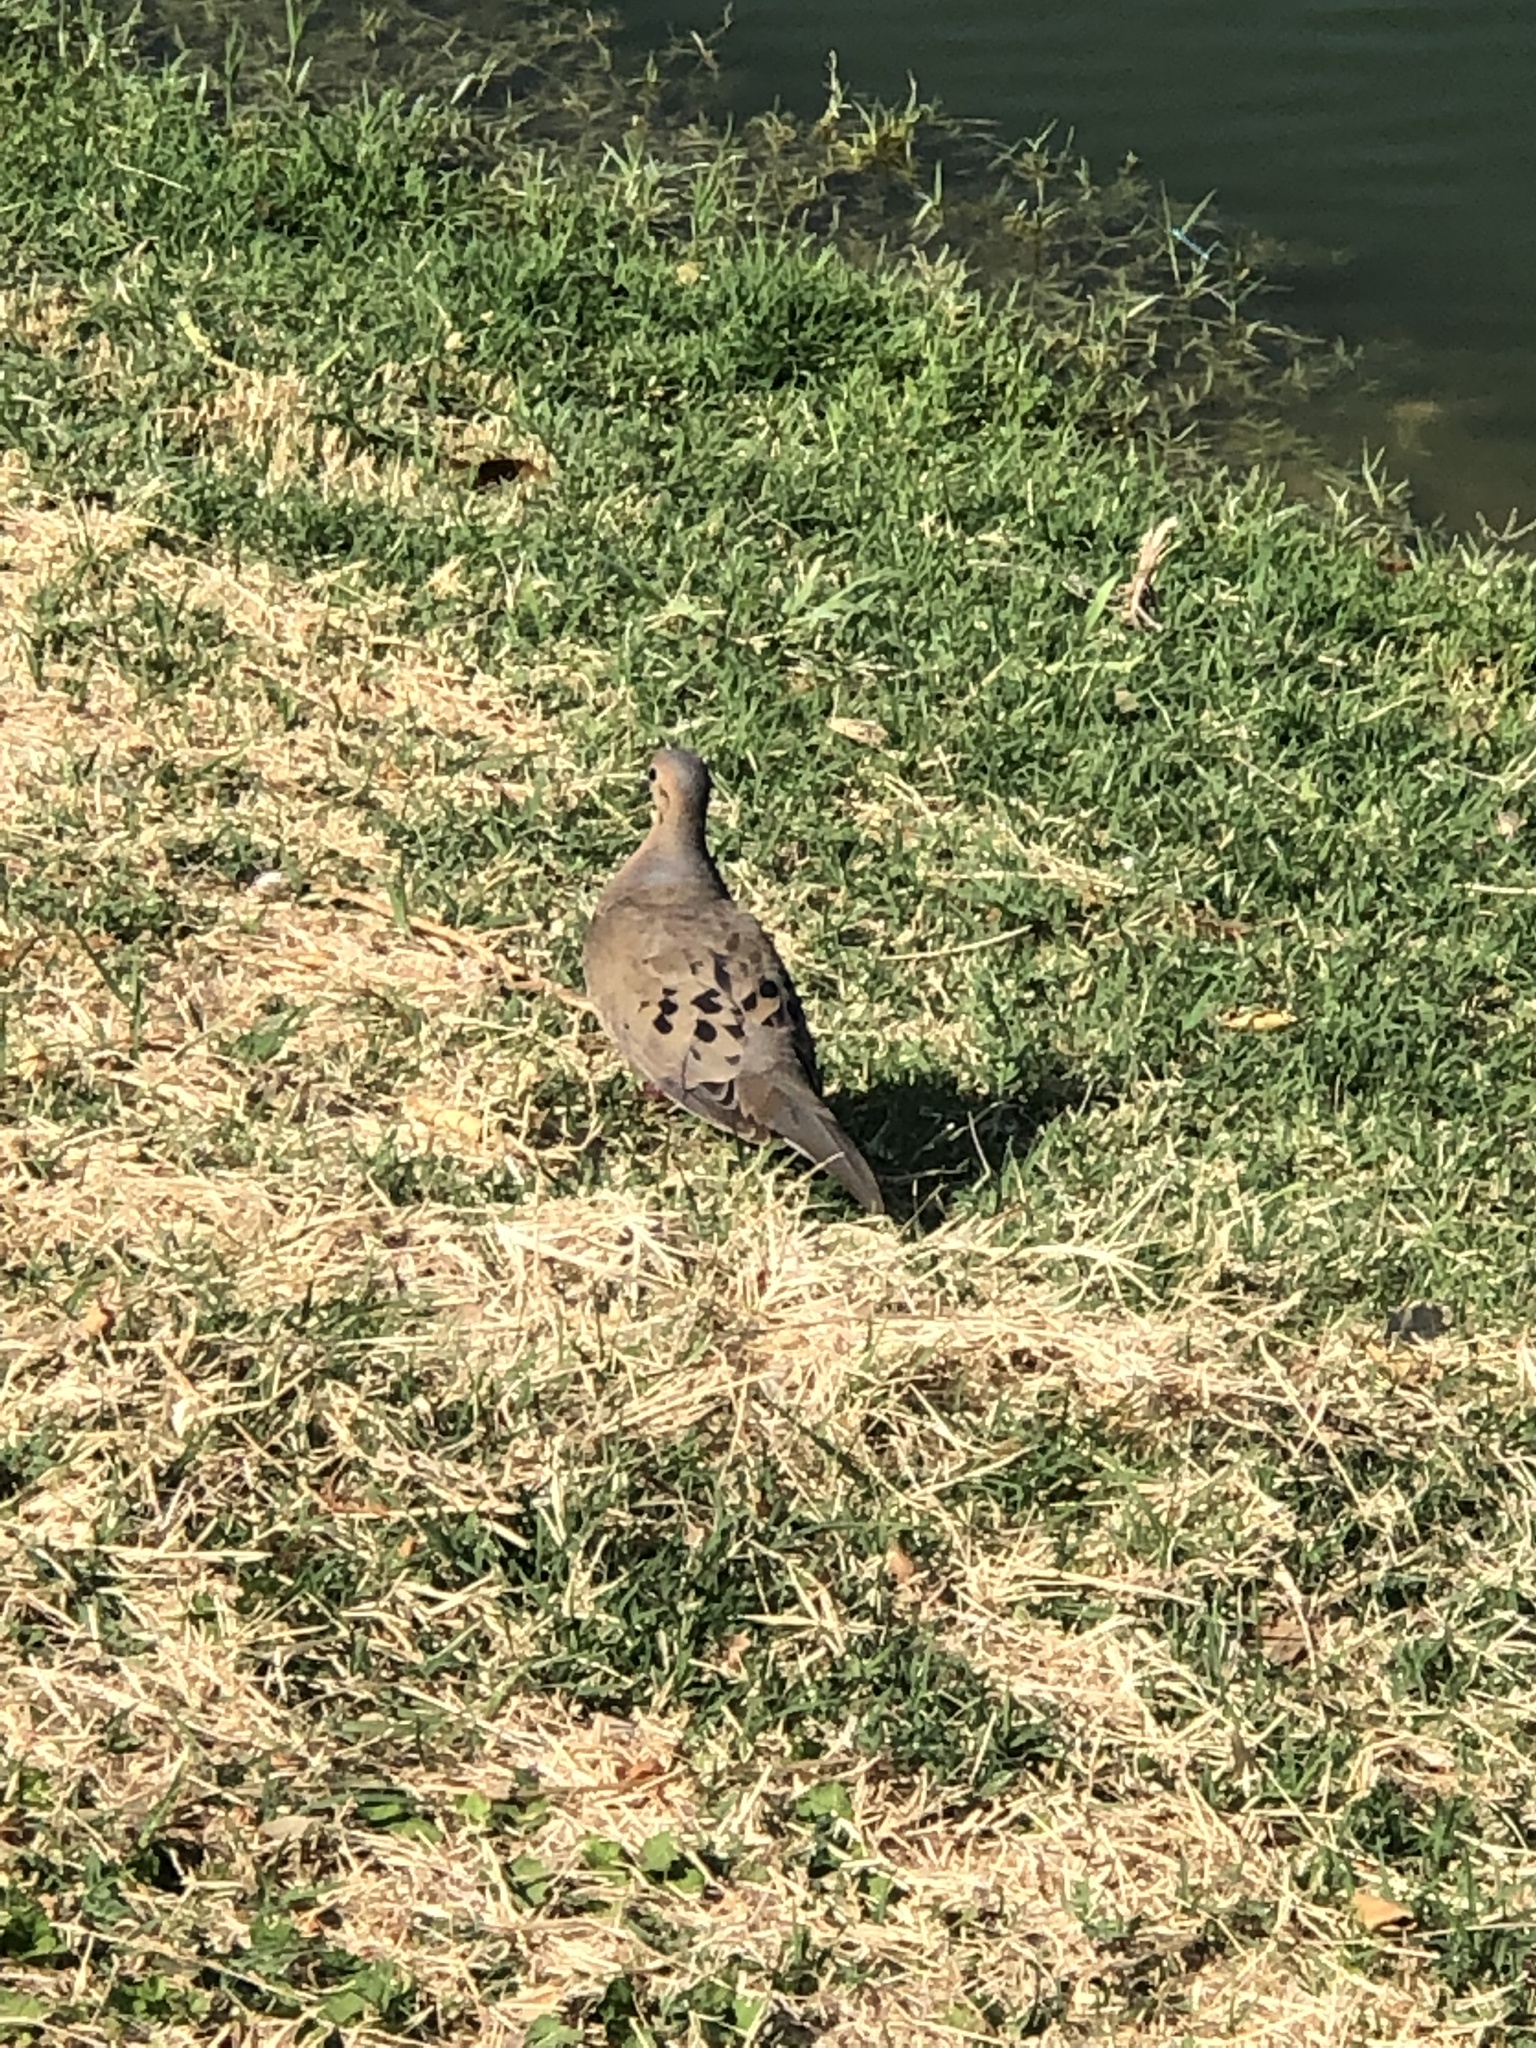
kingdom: Animalia
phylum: Chordata
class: Aves
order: Columbiformes
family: Columbidae
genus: Zenaida
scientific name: Zenaida macroura
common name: Mourning dove
